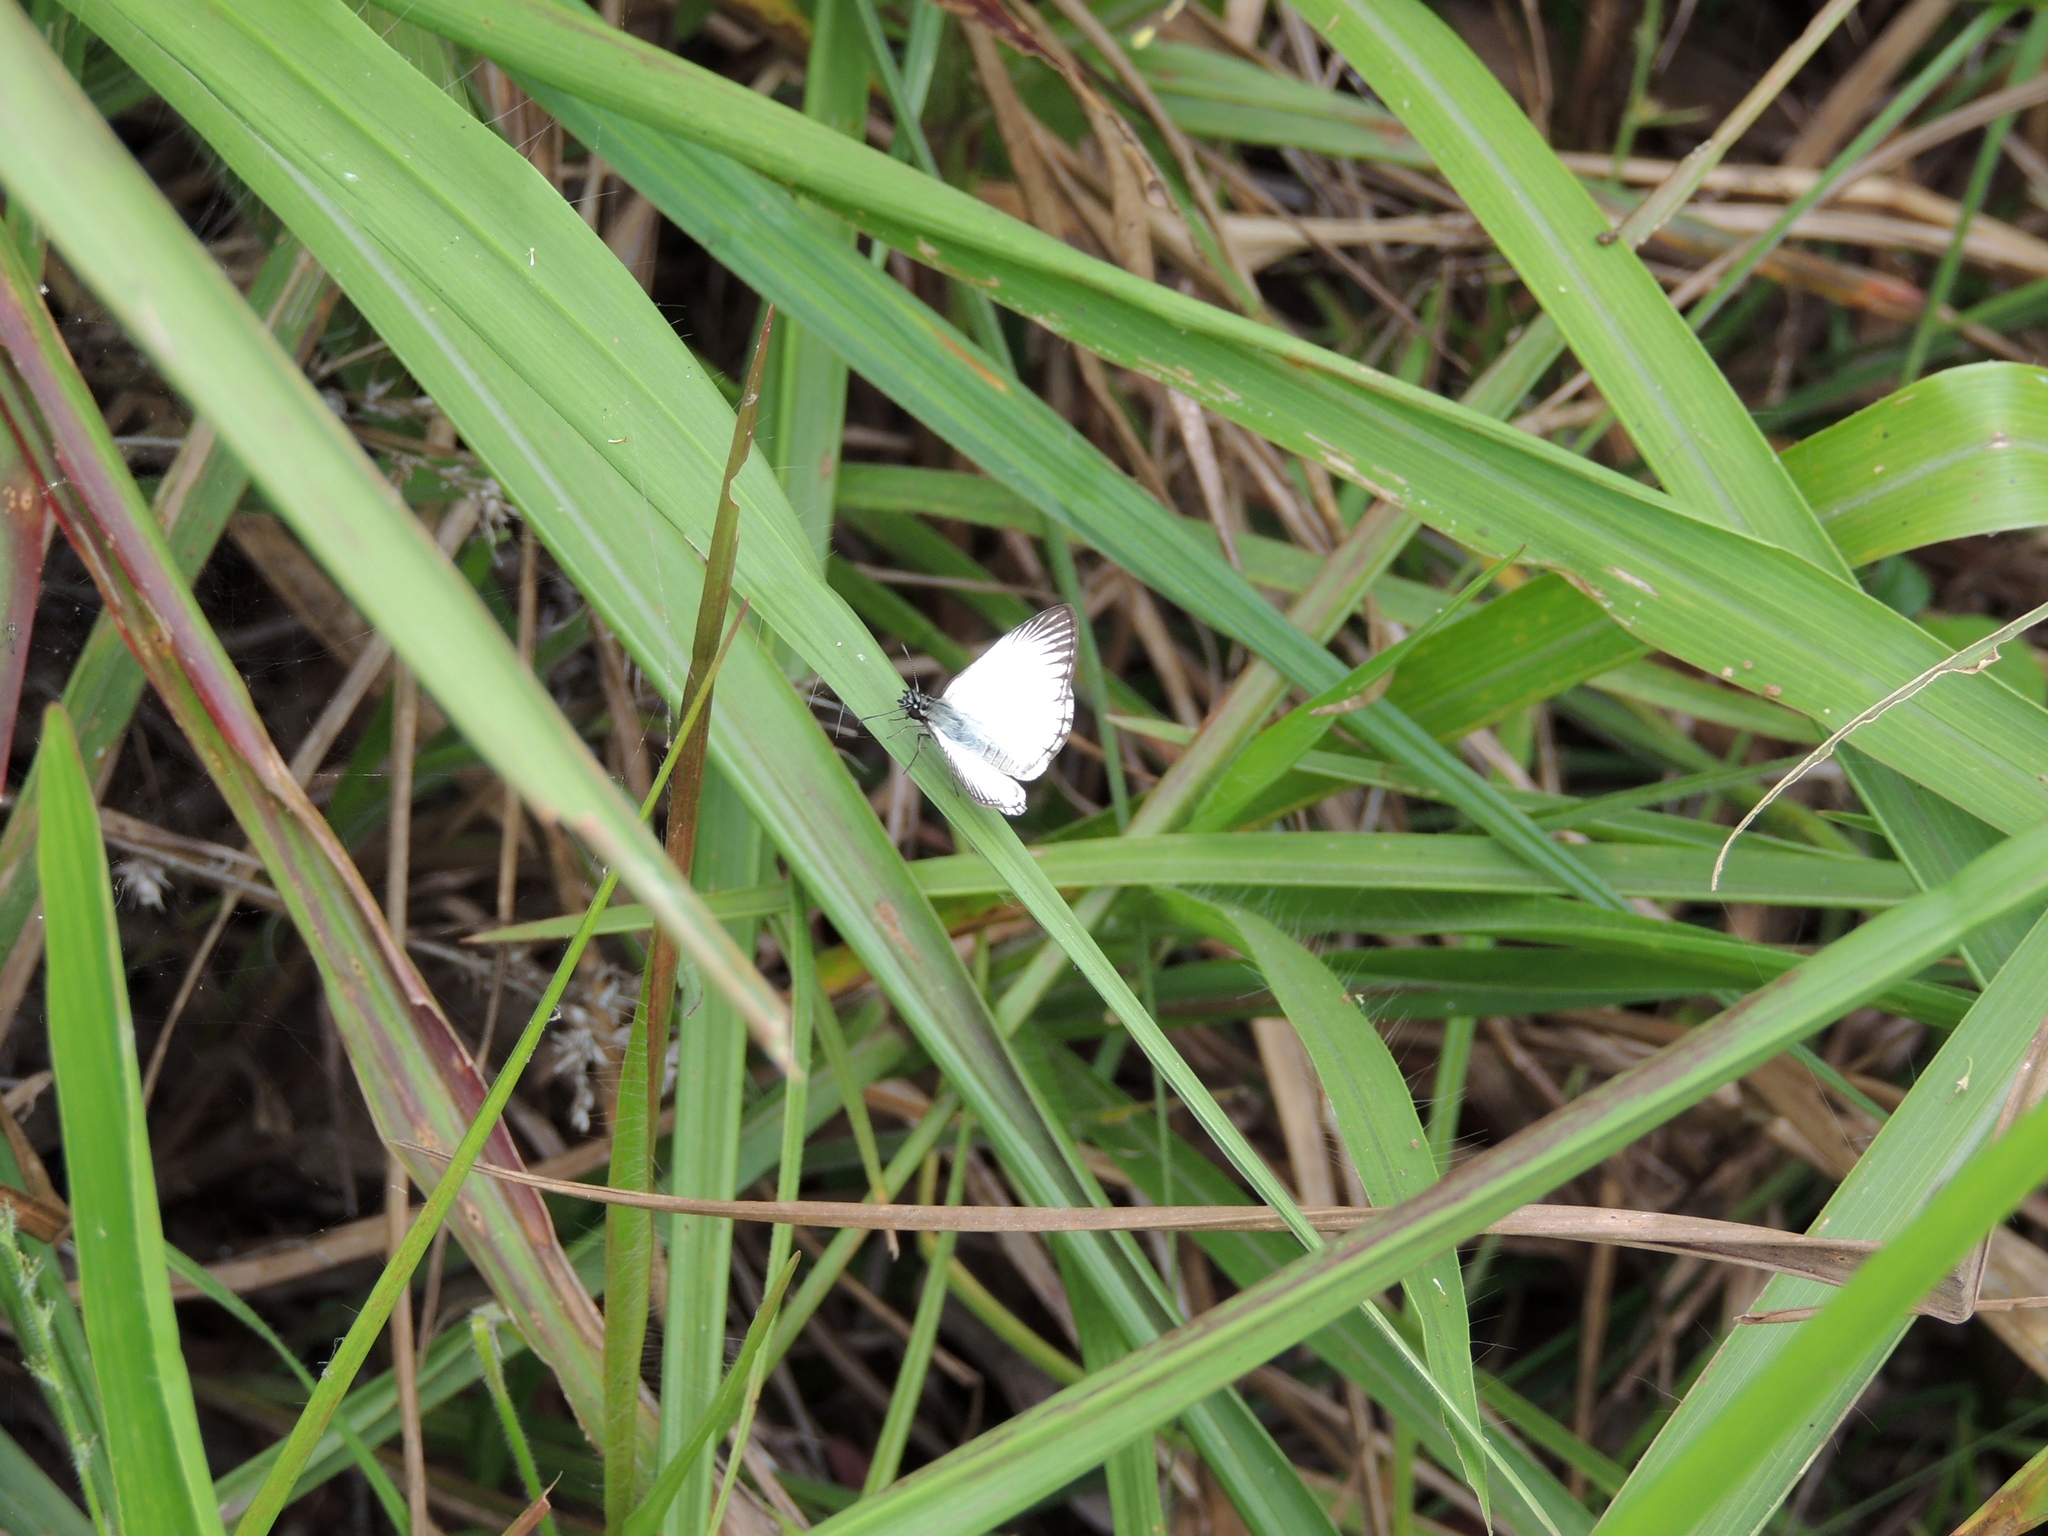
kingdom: Animalia
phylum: Arthropoda
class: Insecta
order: Lepidoptera
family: Hesperiidae
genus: Heliopetes
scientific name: Heliopetes arsalte
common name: Veined white-skipper
